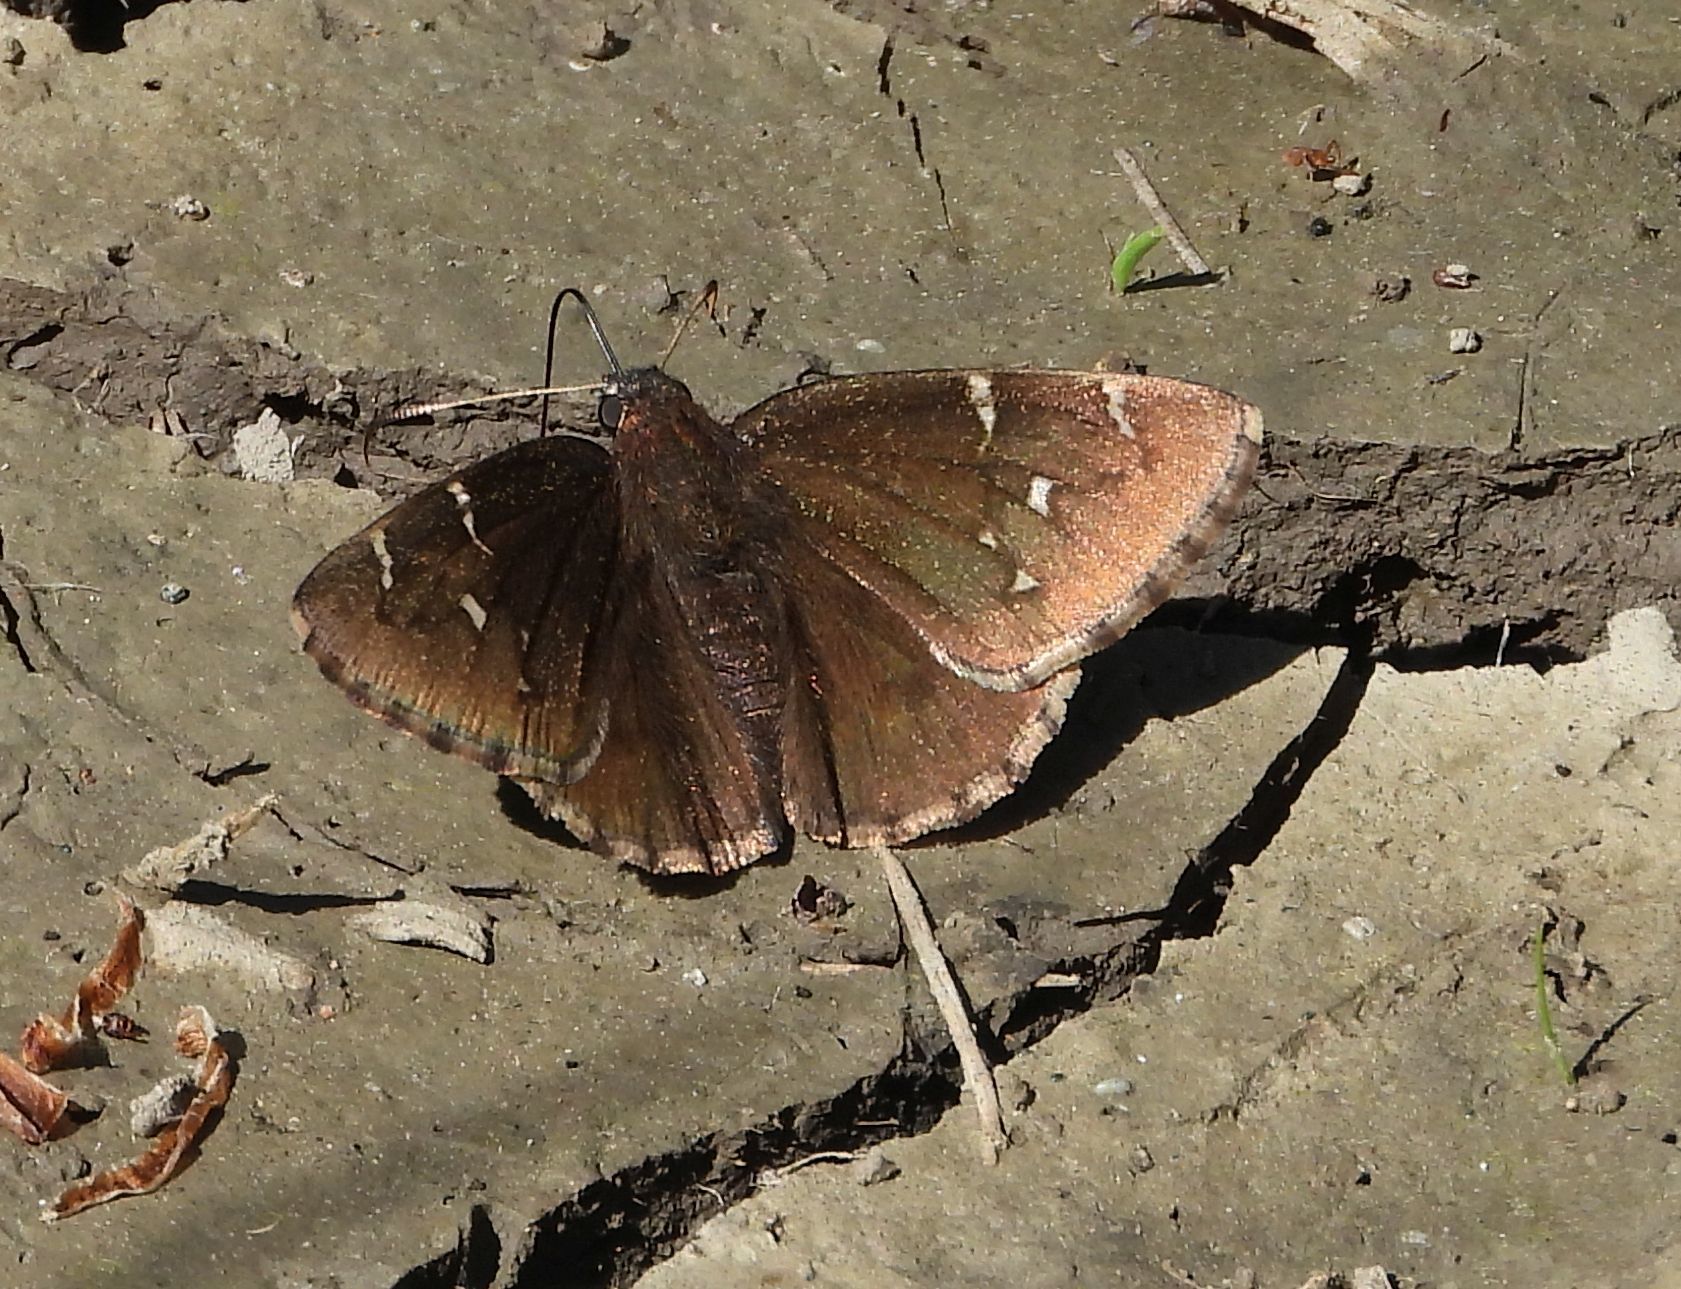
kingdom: Animalia
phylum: Arthropoda
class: Insecta
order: Lepidoptera
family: Hesperiidae
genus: Thorybes
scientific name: Thorybes pylades
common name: Northern cloudywing
